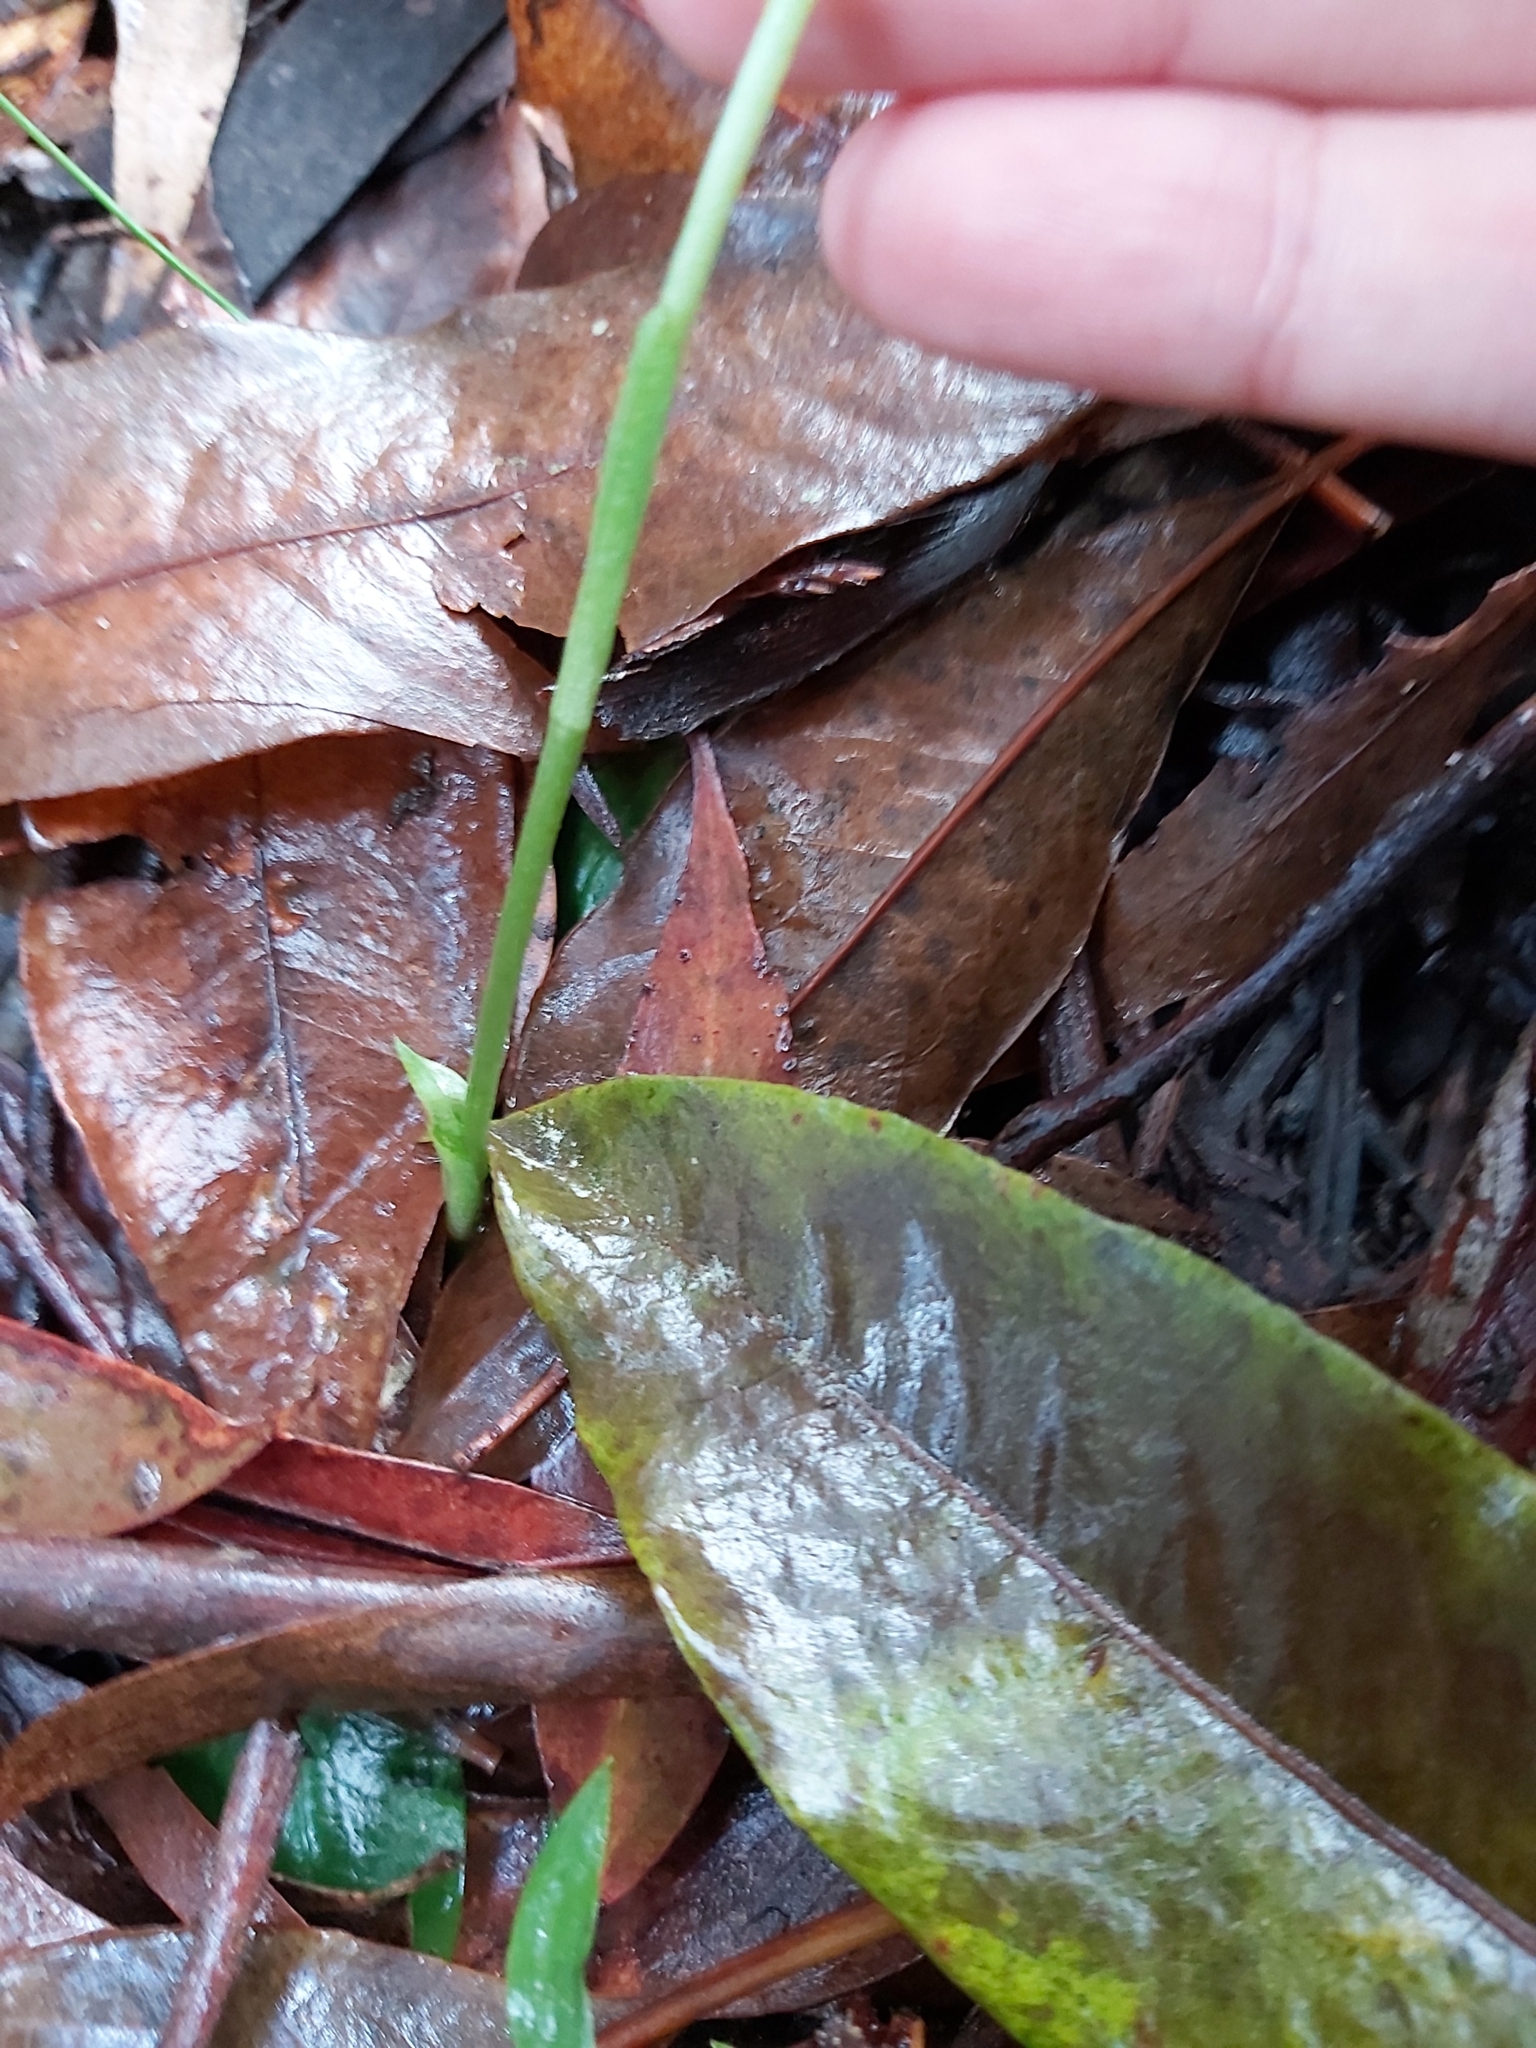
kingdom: Plantae
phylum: Tracheophyta
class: Liliopsida
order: Asparagales
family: Orchidaceae
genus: Pterostylis
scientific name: Pterostylis curta
